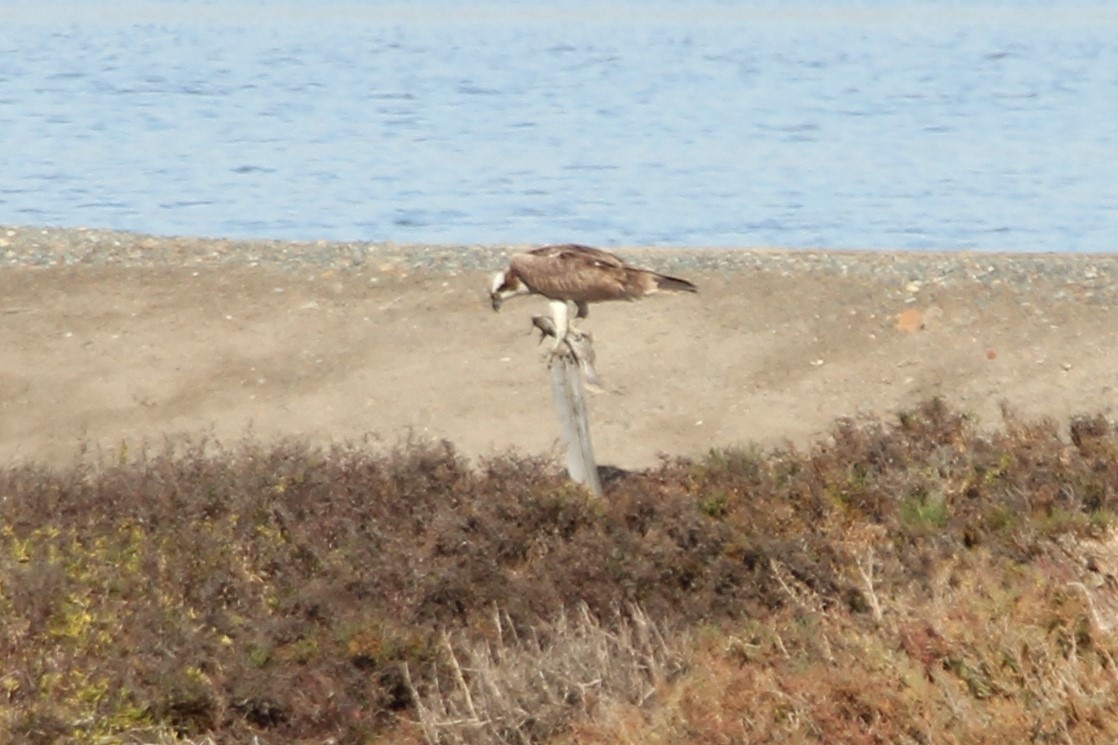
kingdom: Animalia
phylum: Chordata
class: Aves
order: Accipitriformes
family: Pandionidae
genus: Pandion
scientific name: Pandion haliaetus
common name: Osprey
